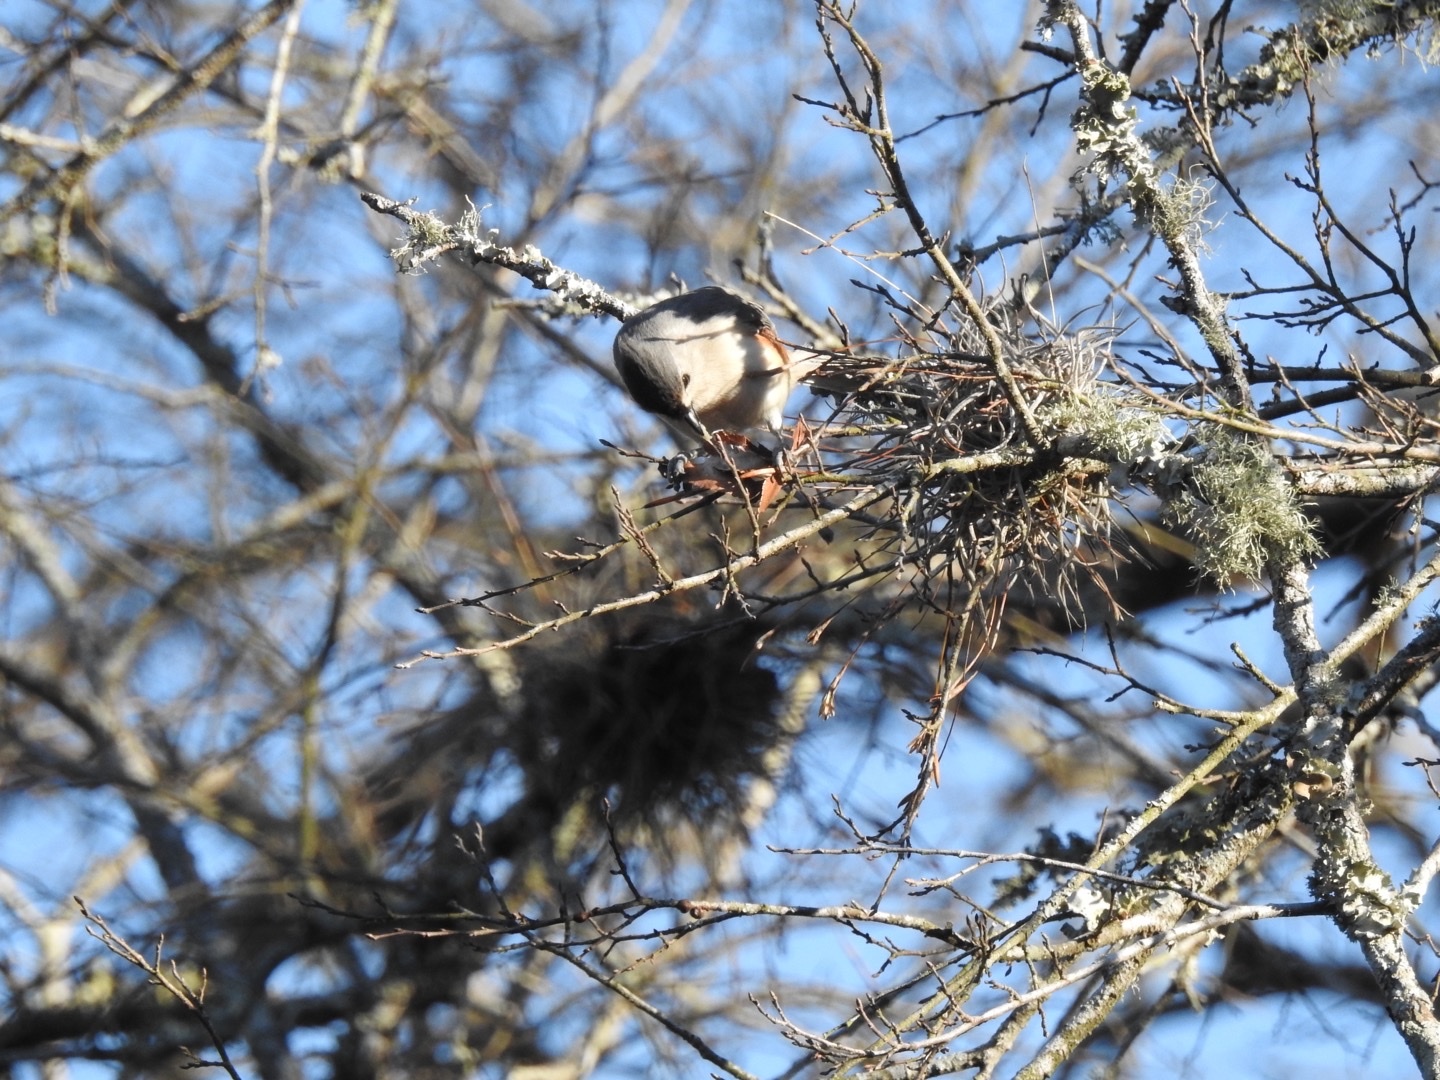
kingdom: Animalia
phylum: Chordata
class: Aves
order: Passeriformes
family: Paridae
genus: Baeolophus
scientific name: Baeolophus bicolor
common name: Tufted titmouse
